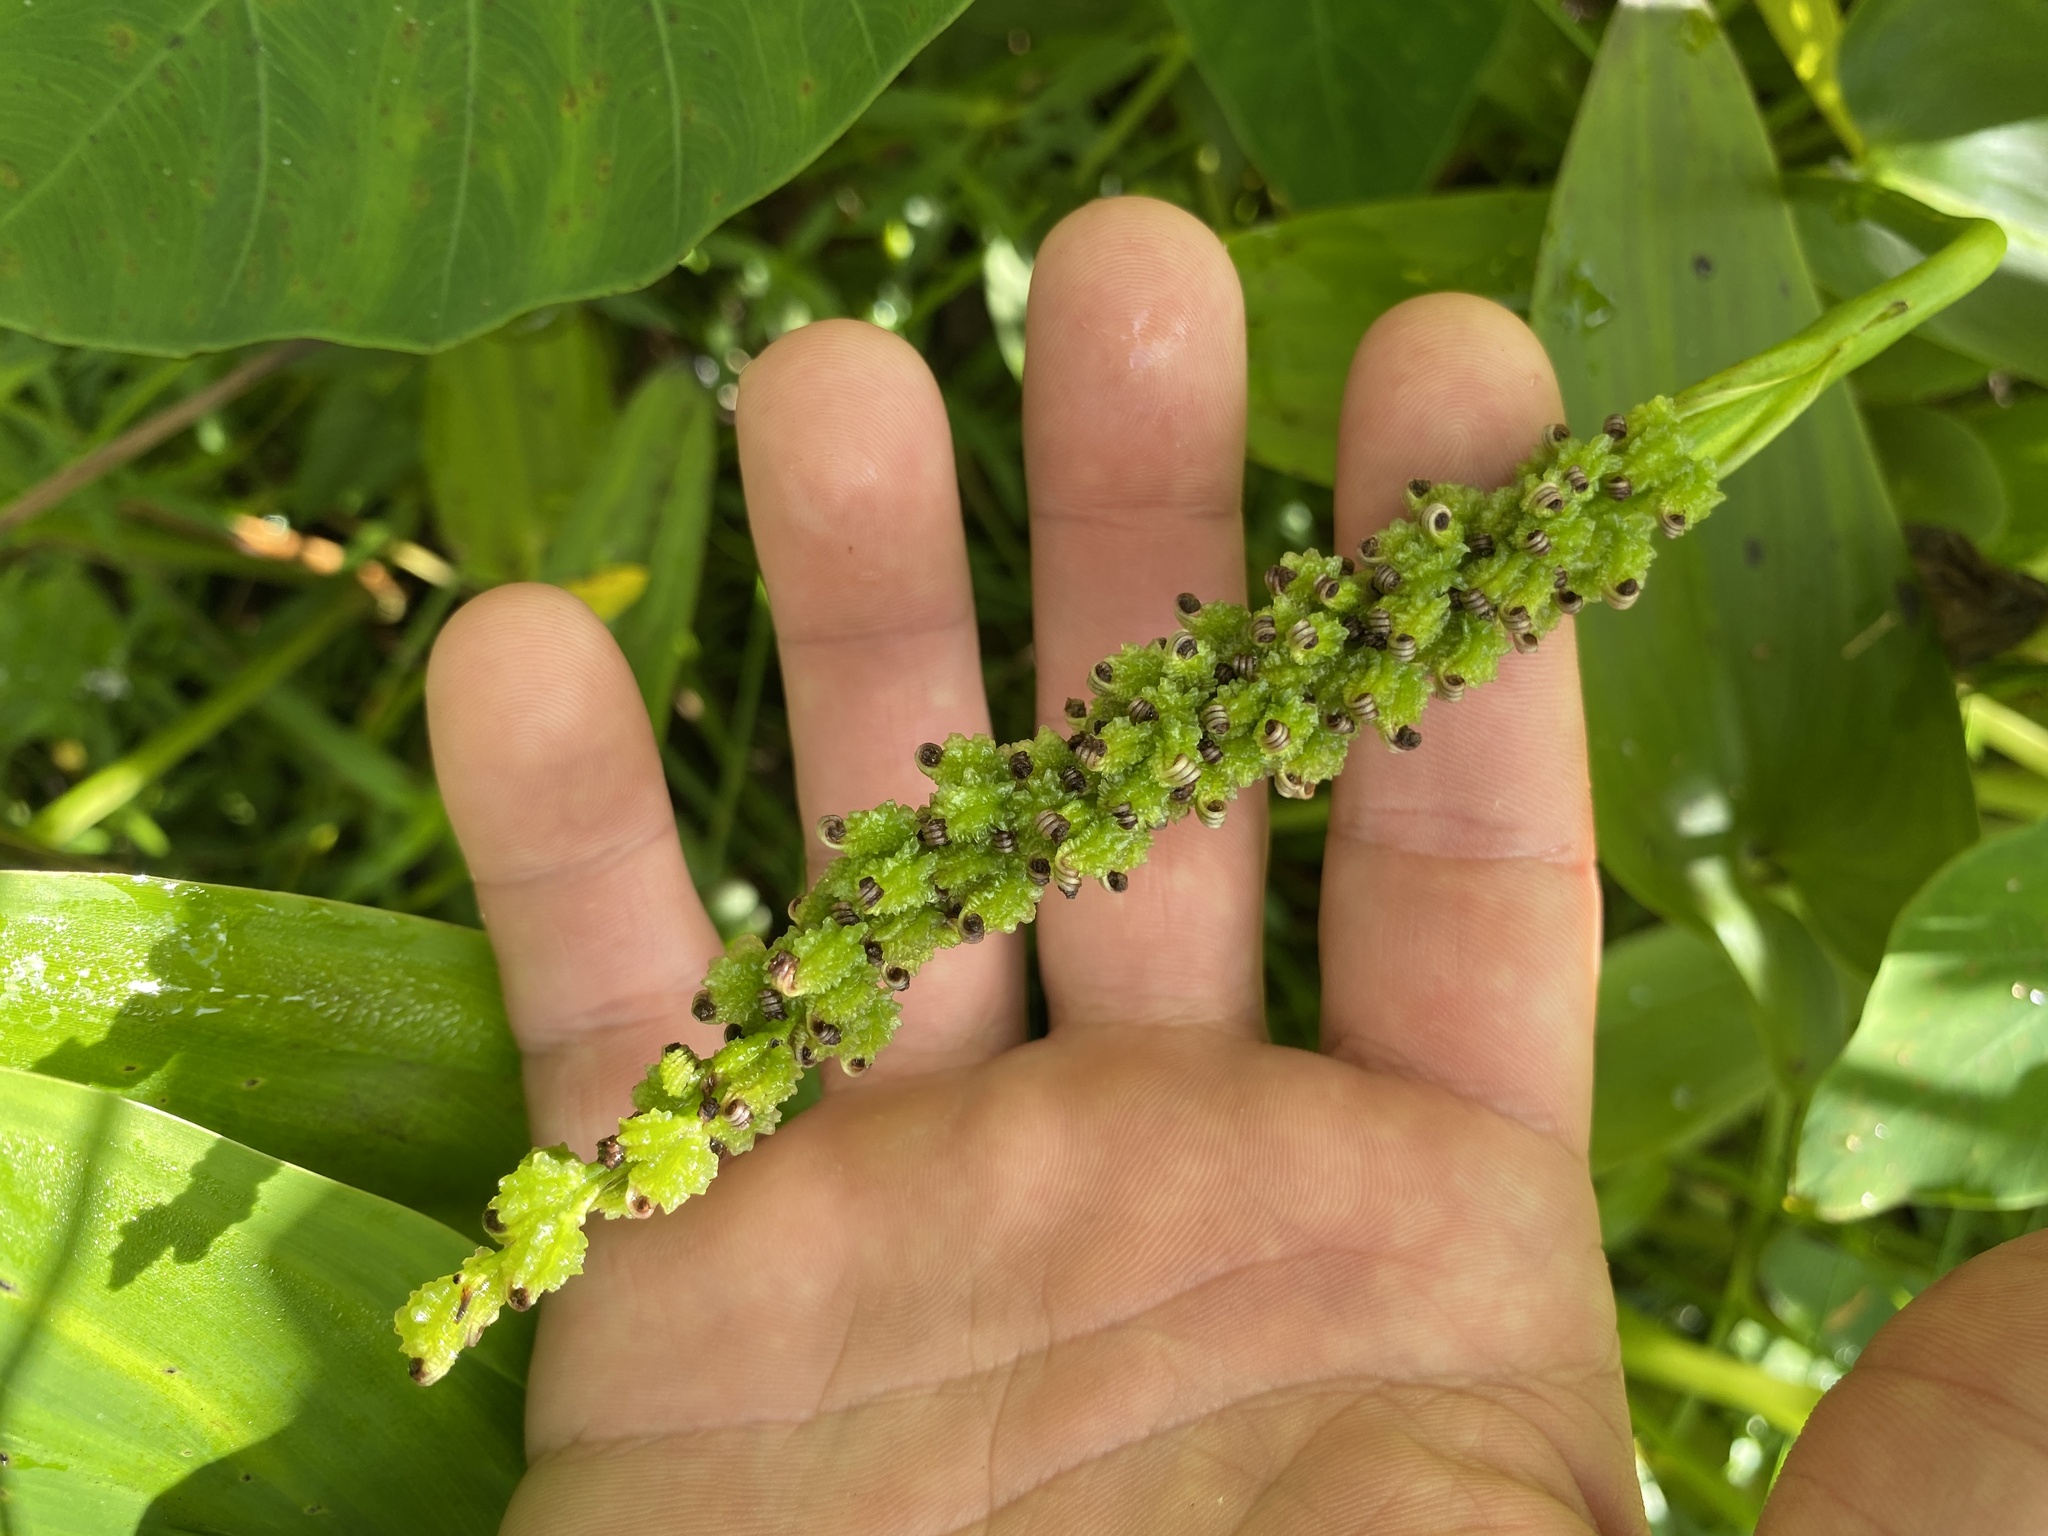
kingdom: Plantae
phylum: Tracheophyta
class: Liliopsida
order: Commelinales
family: Pontederiaceae
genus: Pontederia
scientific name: Pontederia cordata
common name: Pickerelweed
